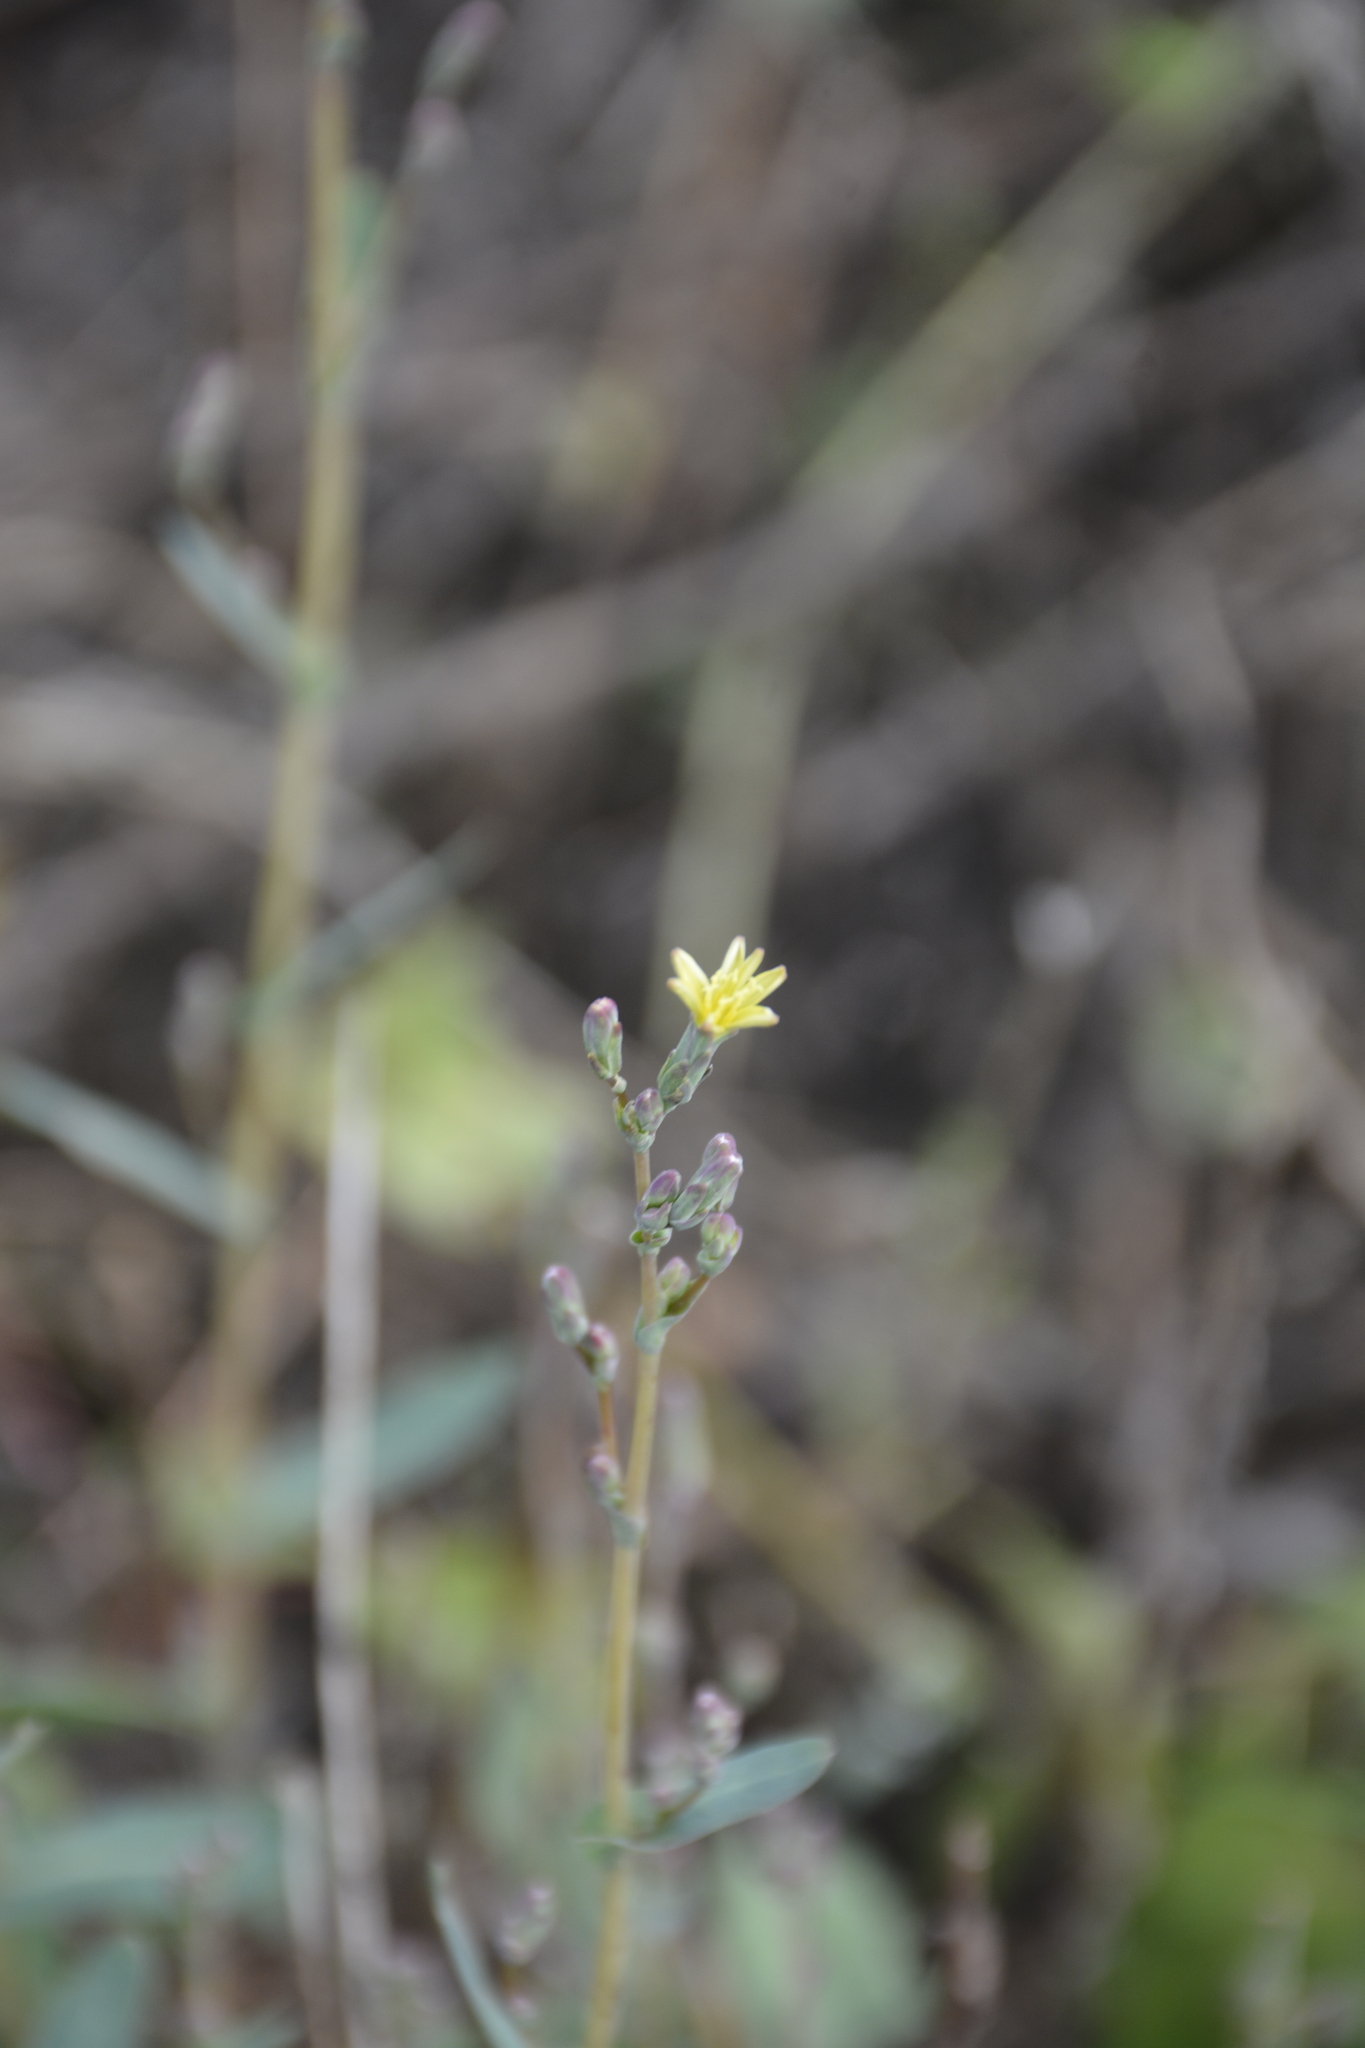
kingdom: Plantae
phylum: Tracheophyta
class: Magnoliopsida
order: Asterales
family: Asteraceae
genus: Lactuca
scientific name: Lactuca serriola
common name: Prickly lettuce
